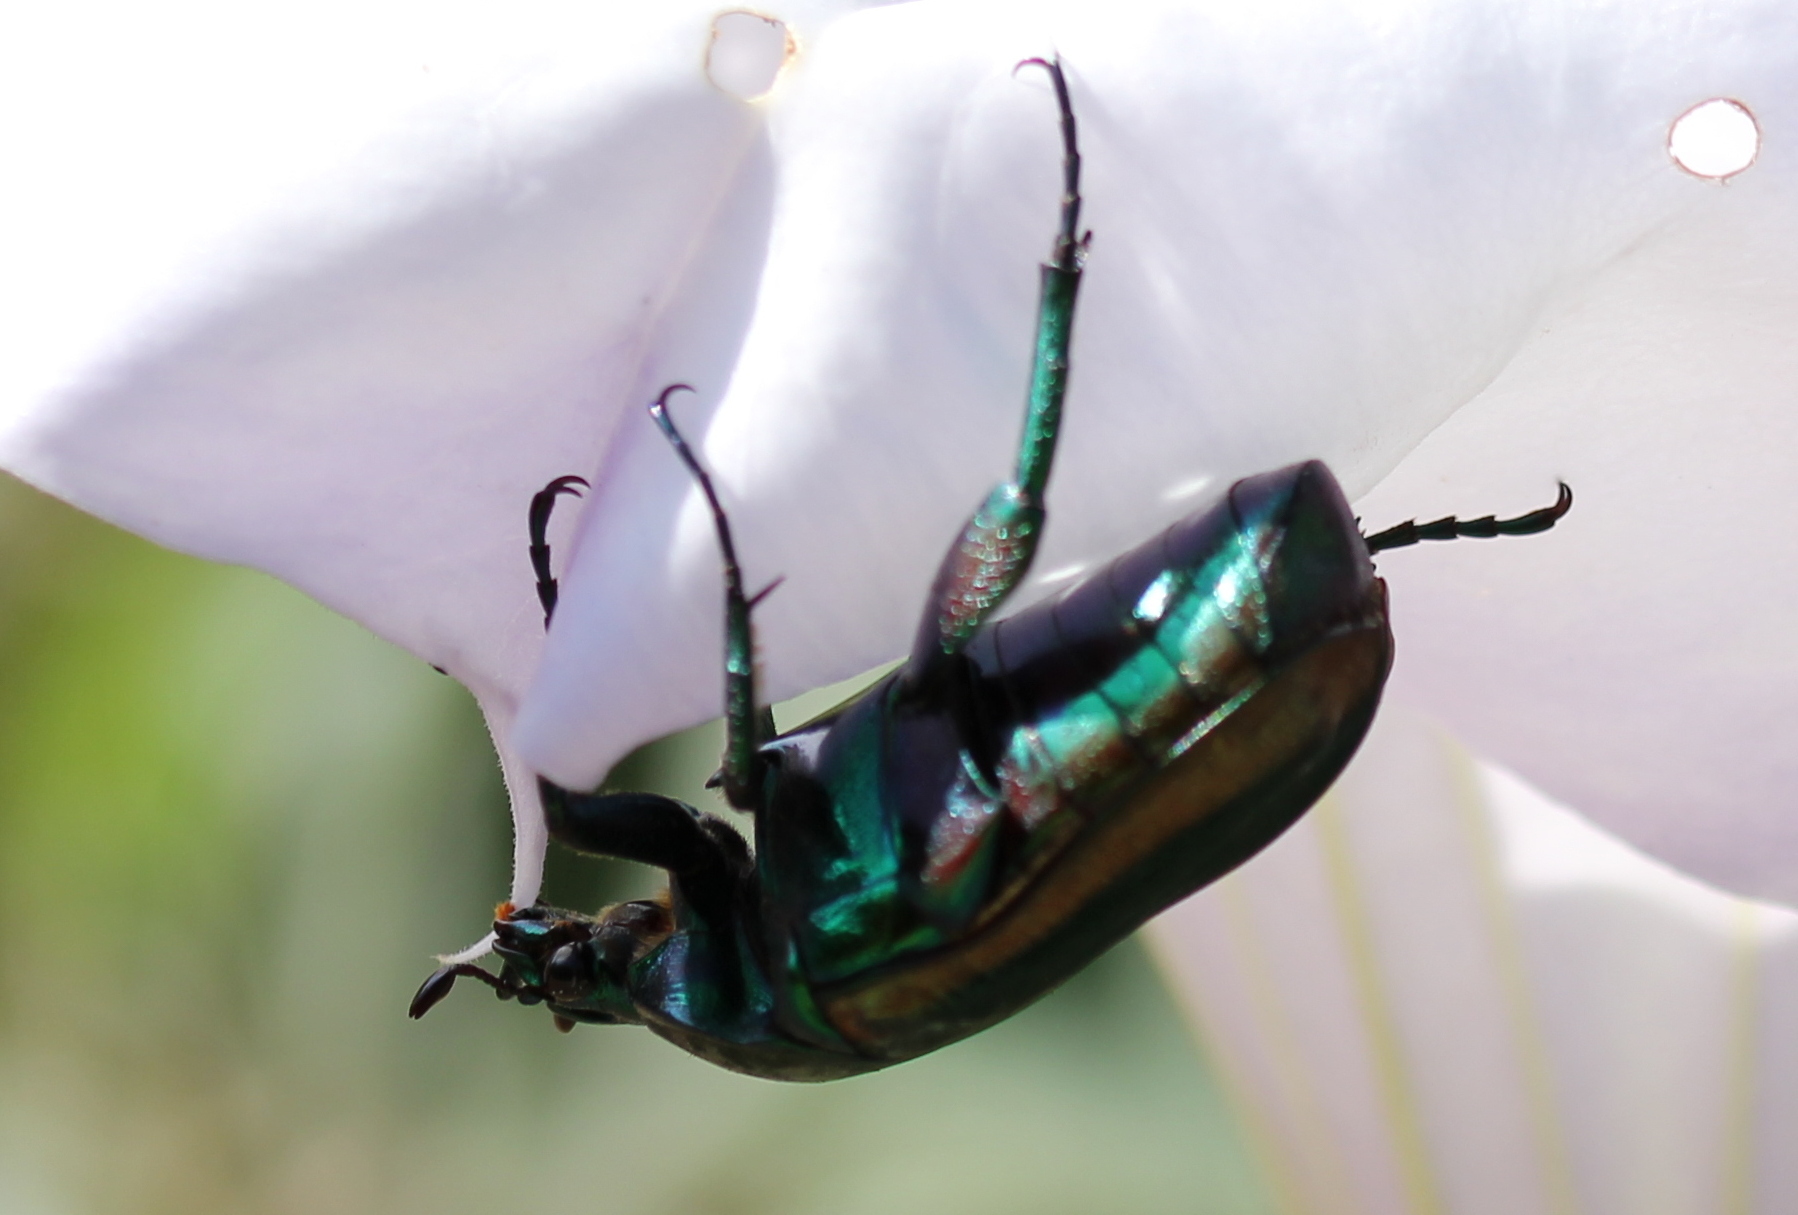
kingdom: Animalia
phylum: Arthropoda
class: Insecta
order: Coleoptera
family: Scarabaeidae
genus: Cotinis
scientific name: Cotinis mutabilis
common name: Figeater beetle
